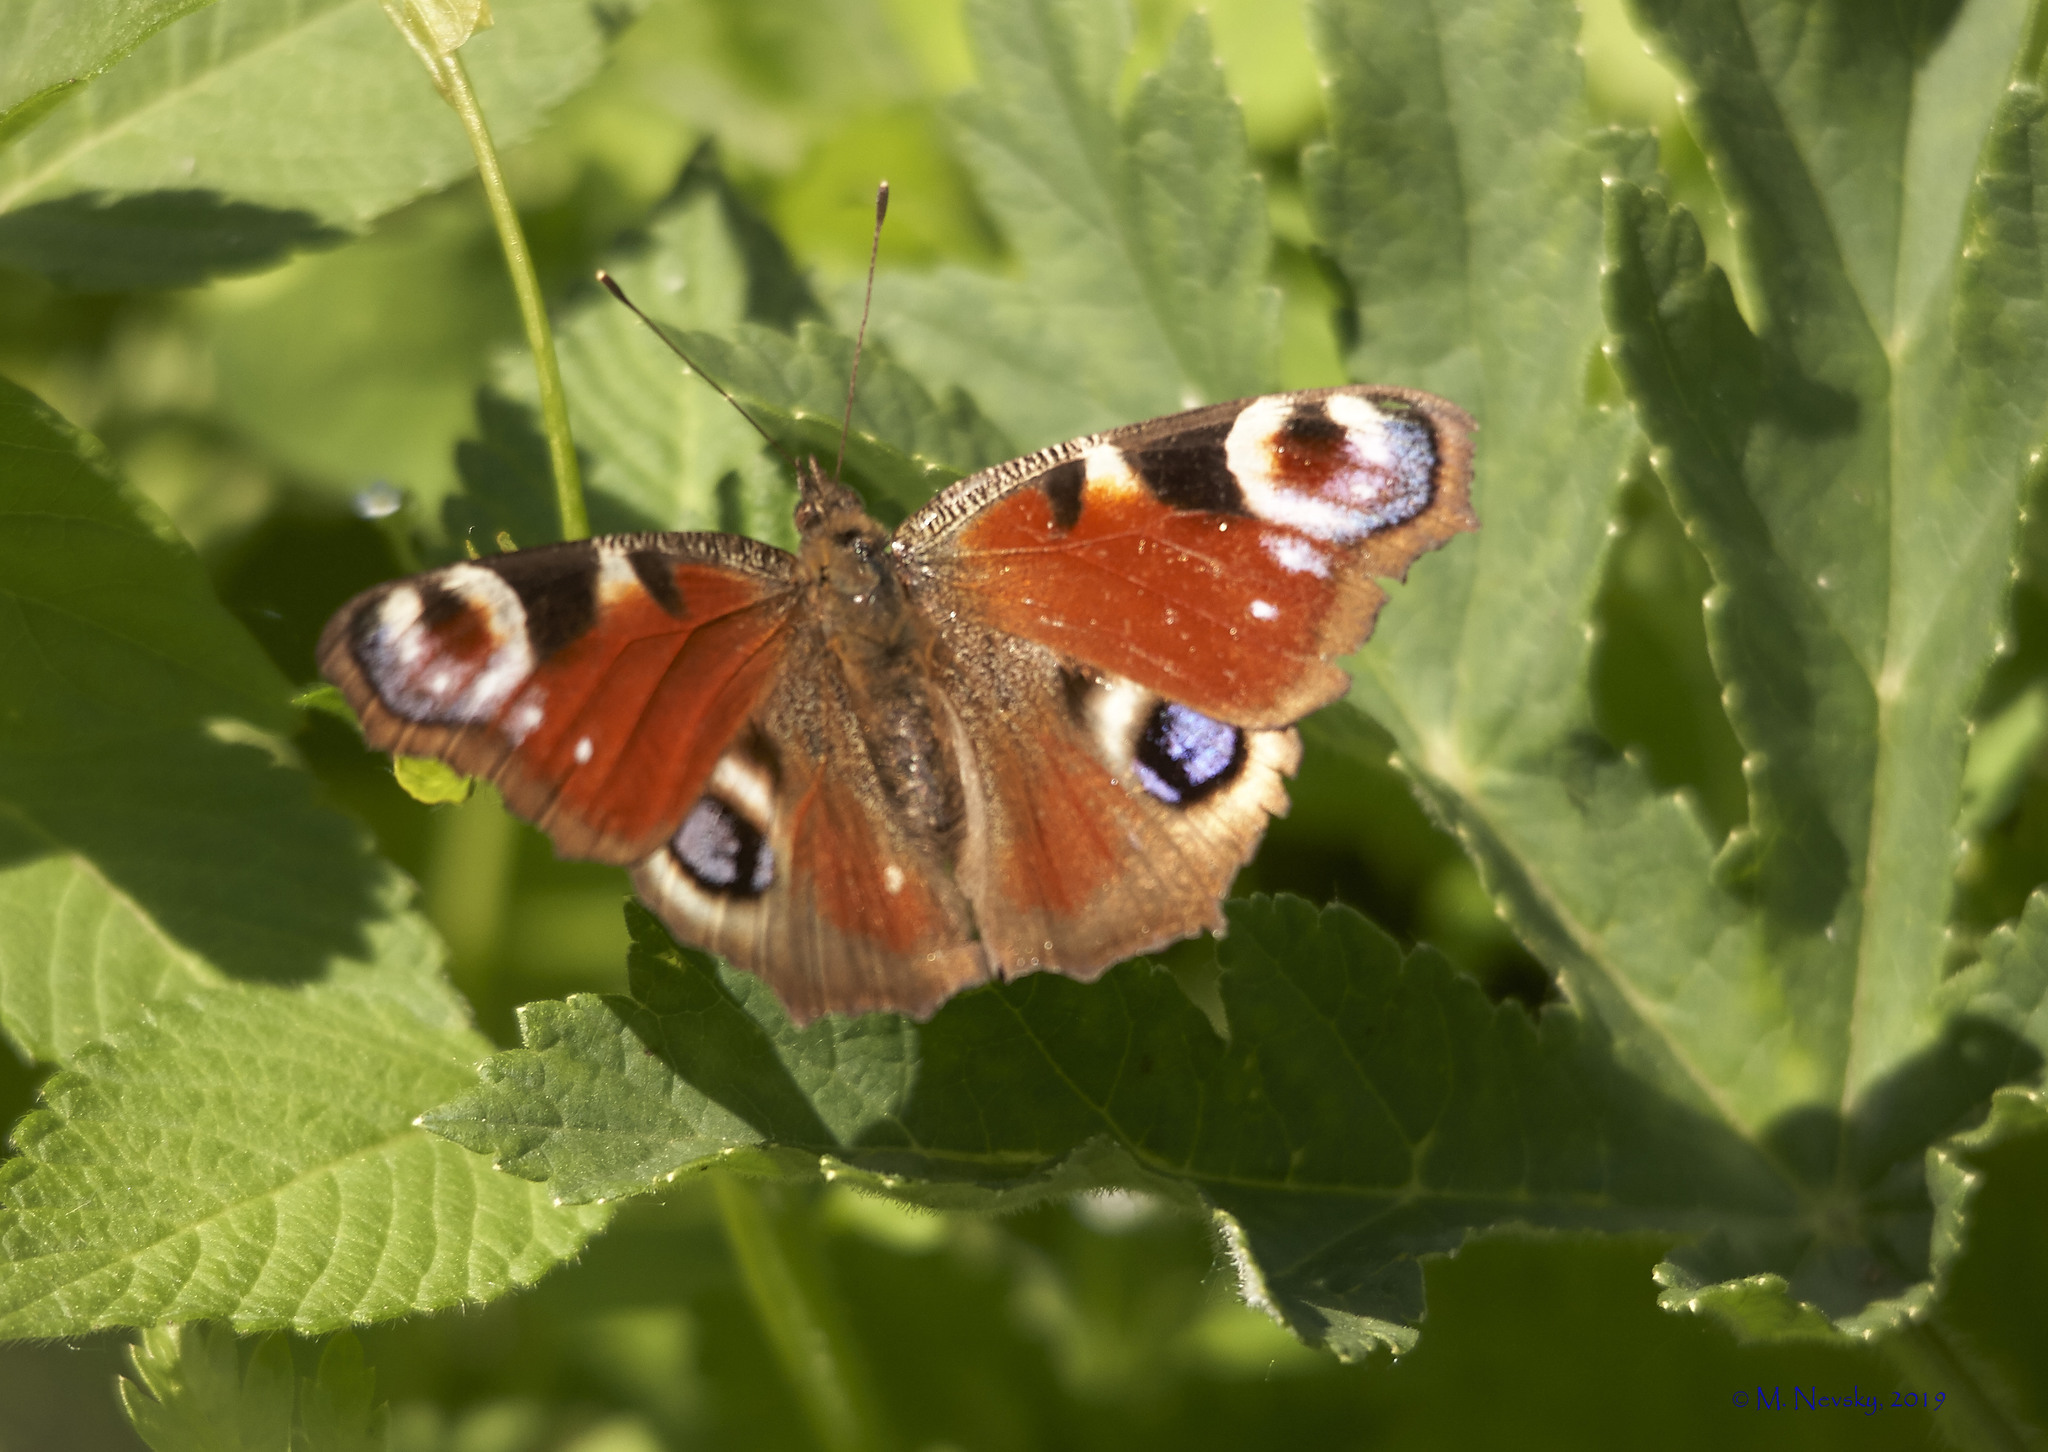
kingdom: Animalia
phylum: Arthropoda
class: Insecta
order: Lepidoptera
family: Nymphalidae
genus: Aglais
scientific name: Aglais io
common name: Peacock
